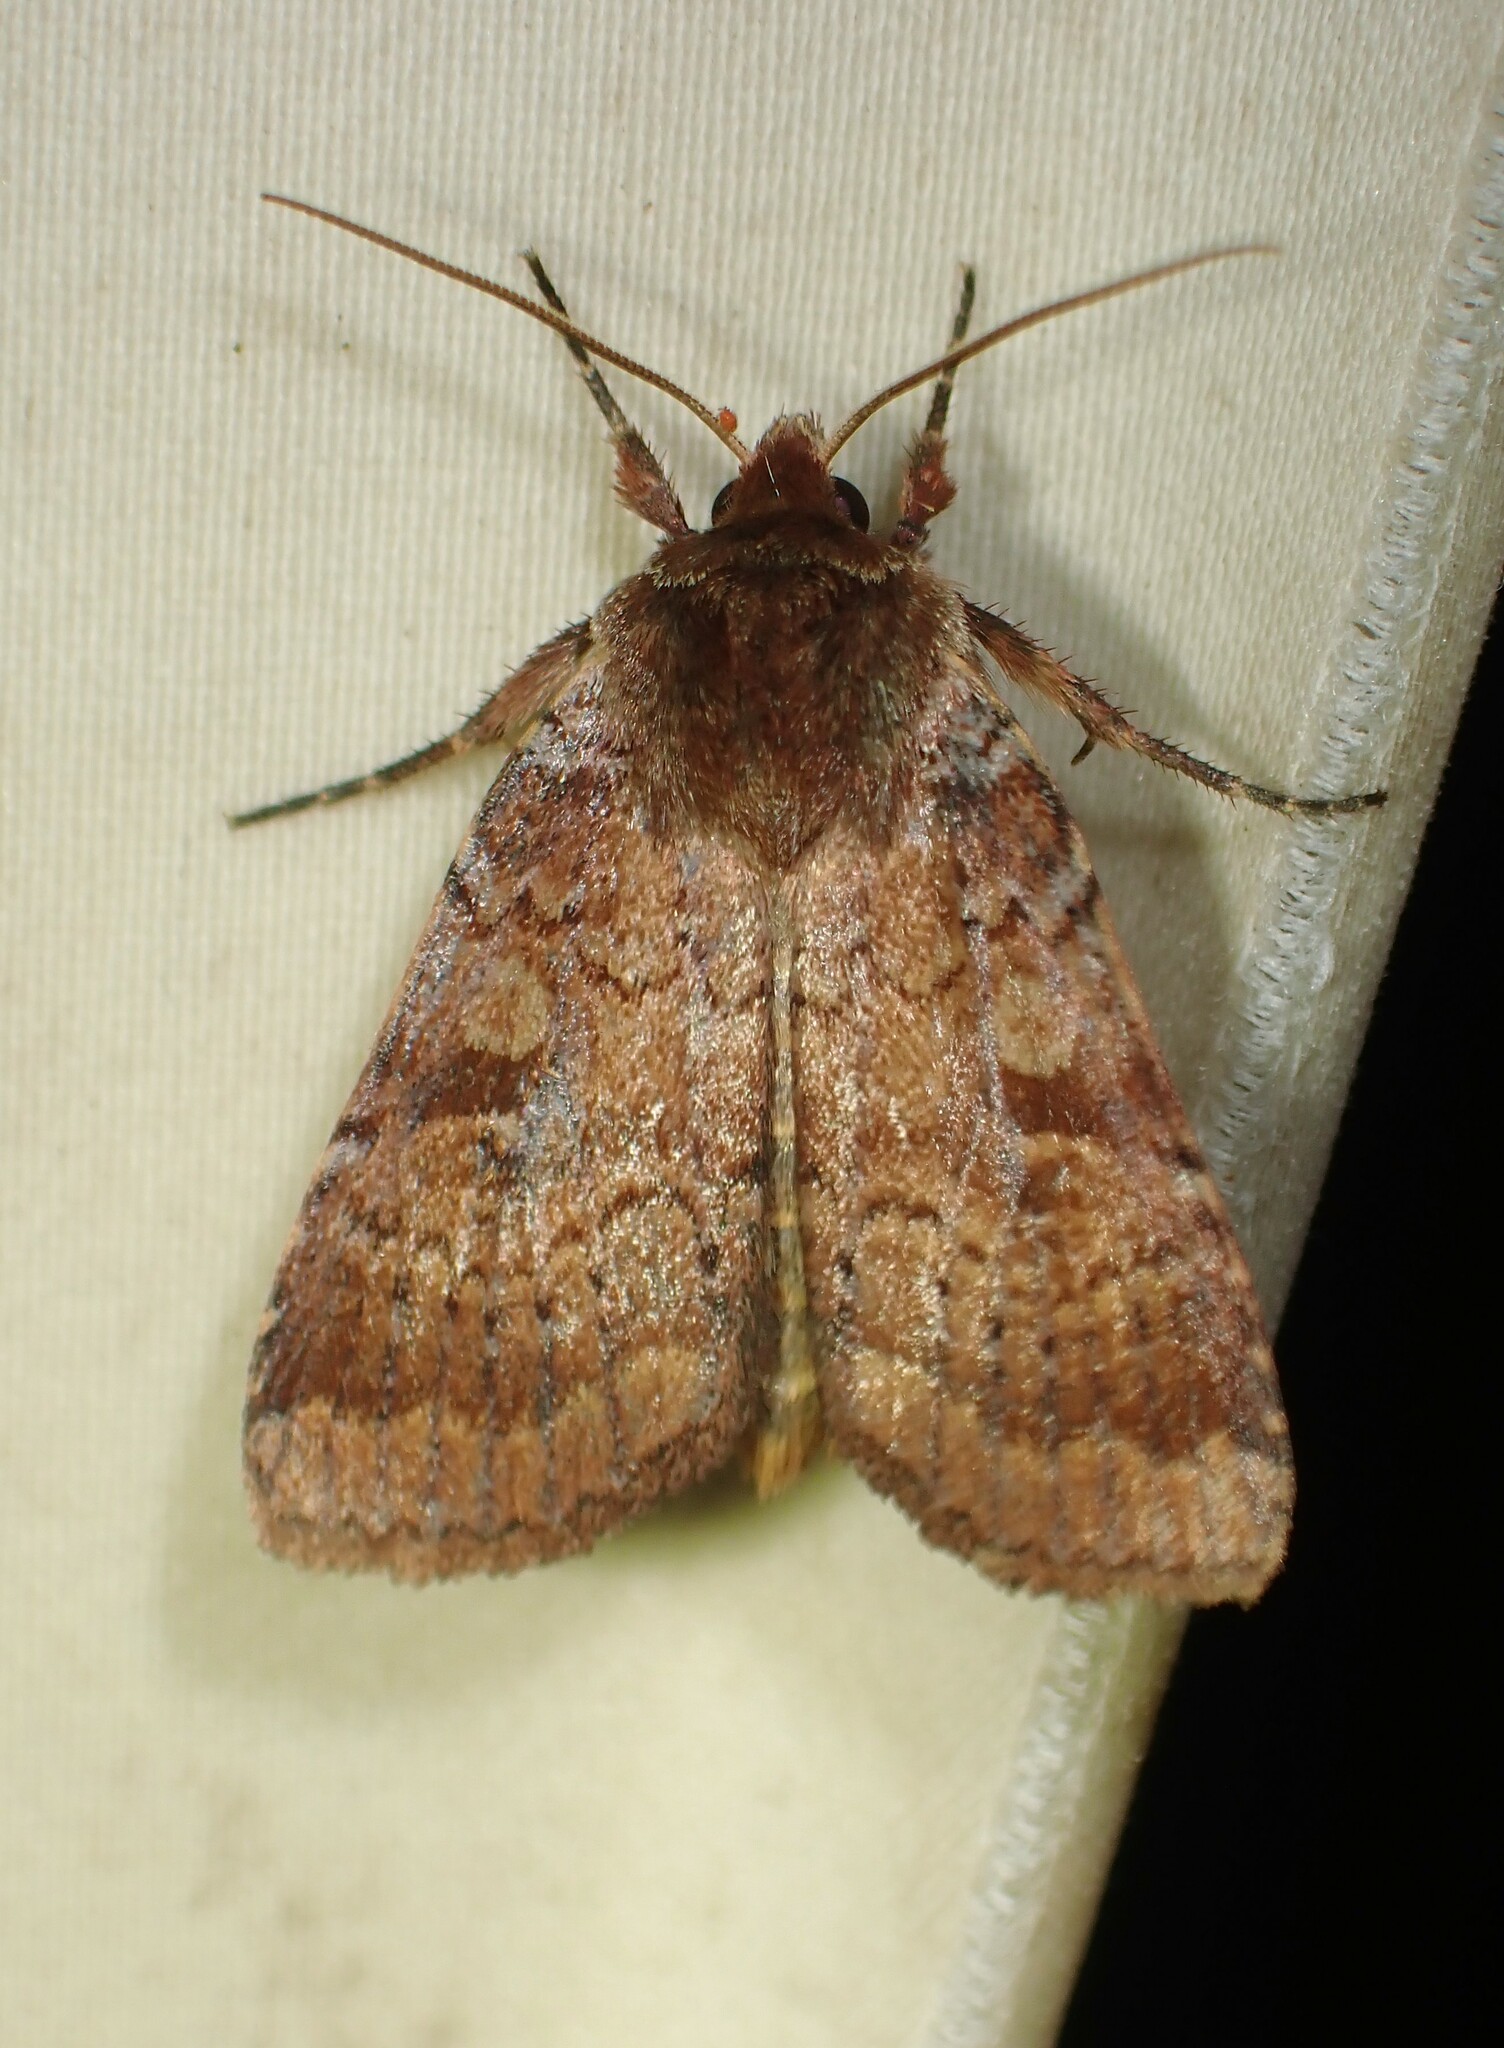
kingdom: Animalia
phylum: Arthropoda
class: Insecta
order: Lepidoptera
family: Noctuidae
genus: Lycophotia
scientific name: Lycophotia phyllophora
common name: Lycophotia moth
